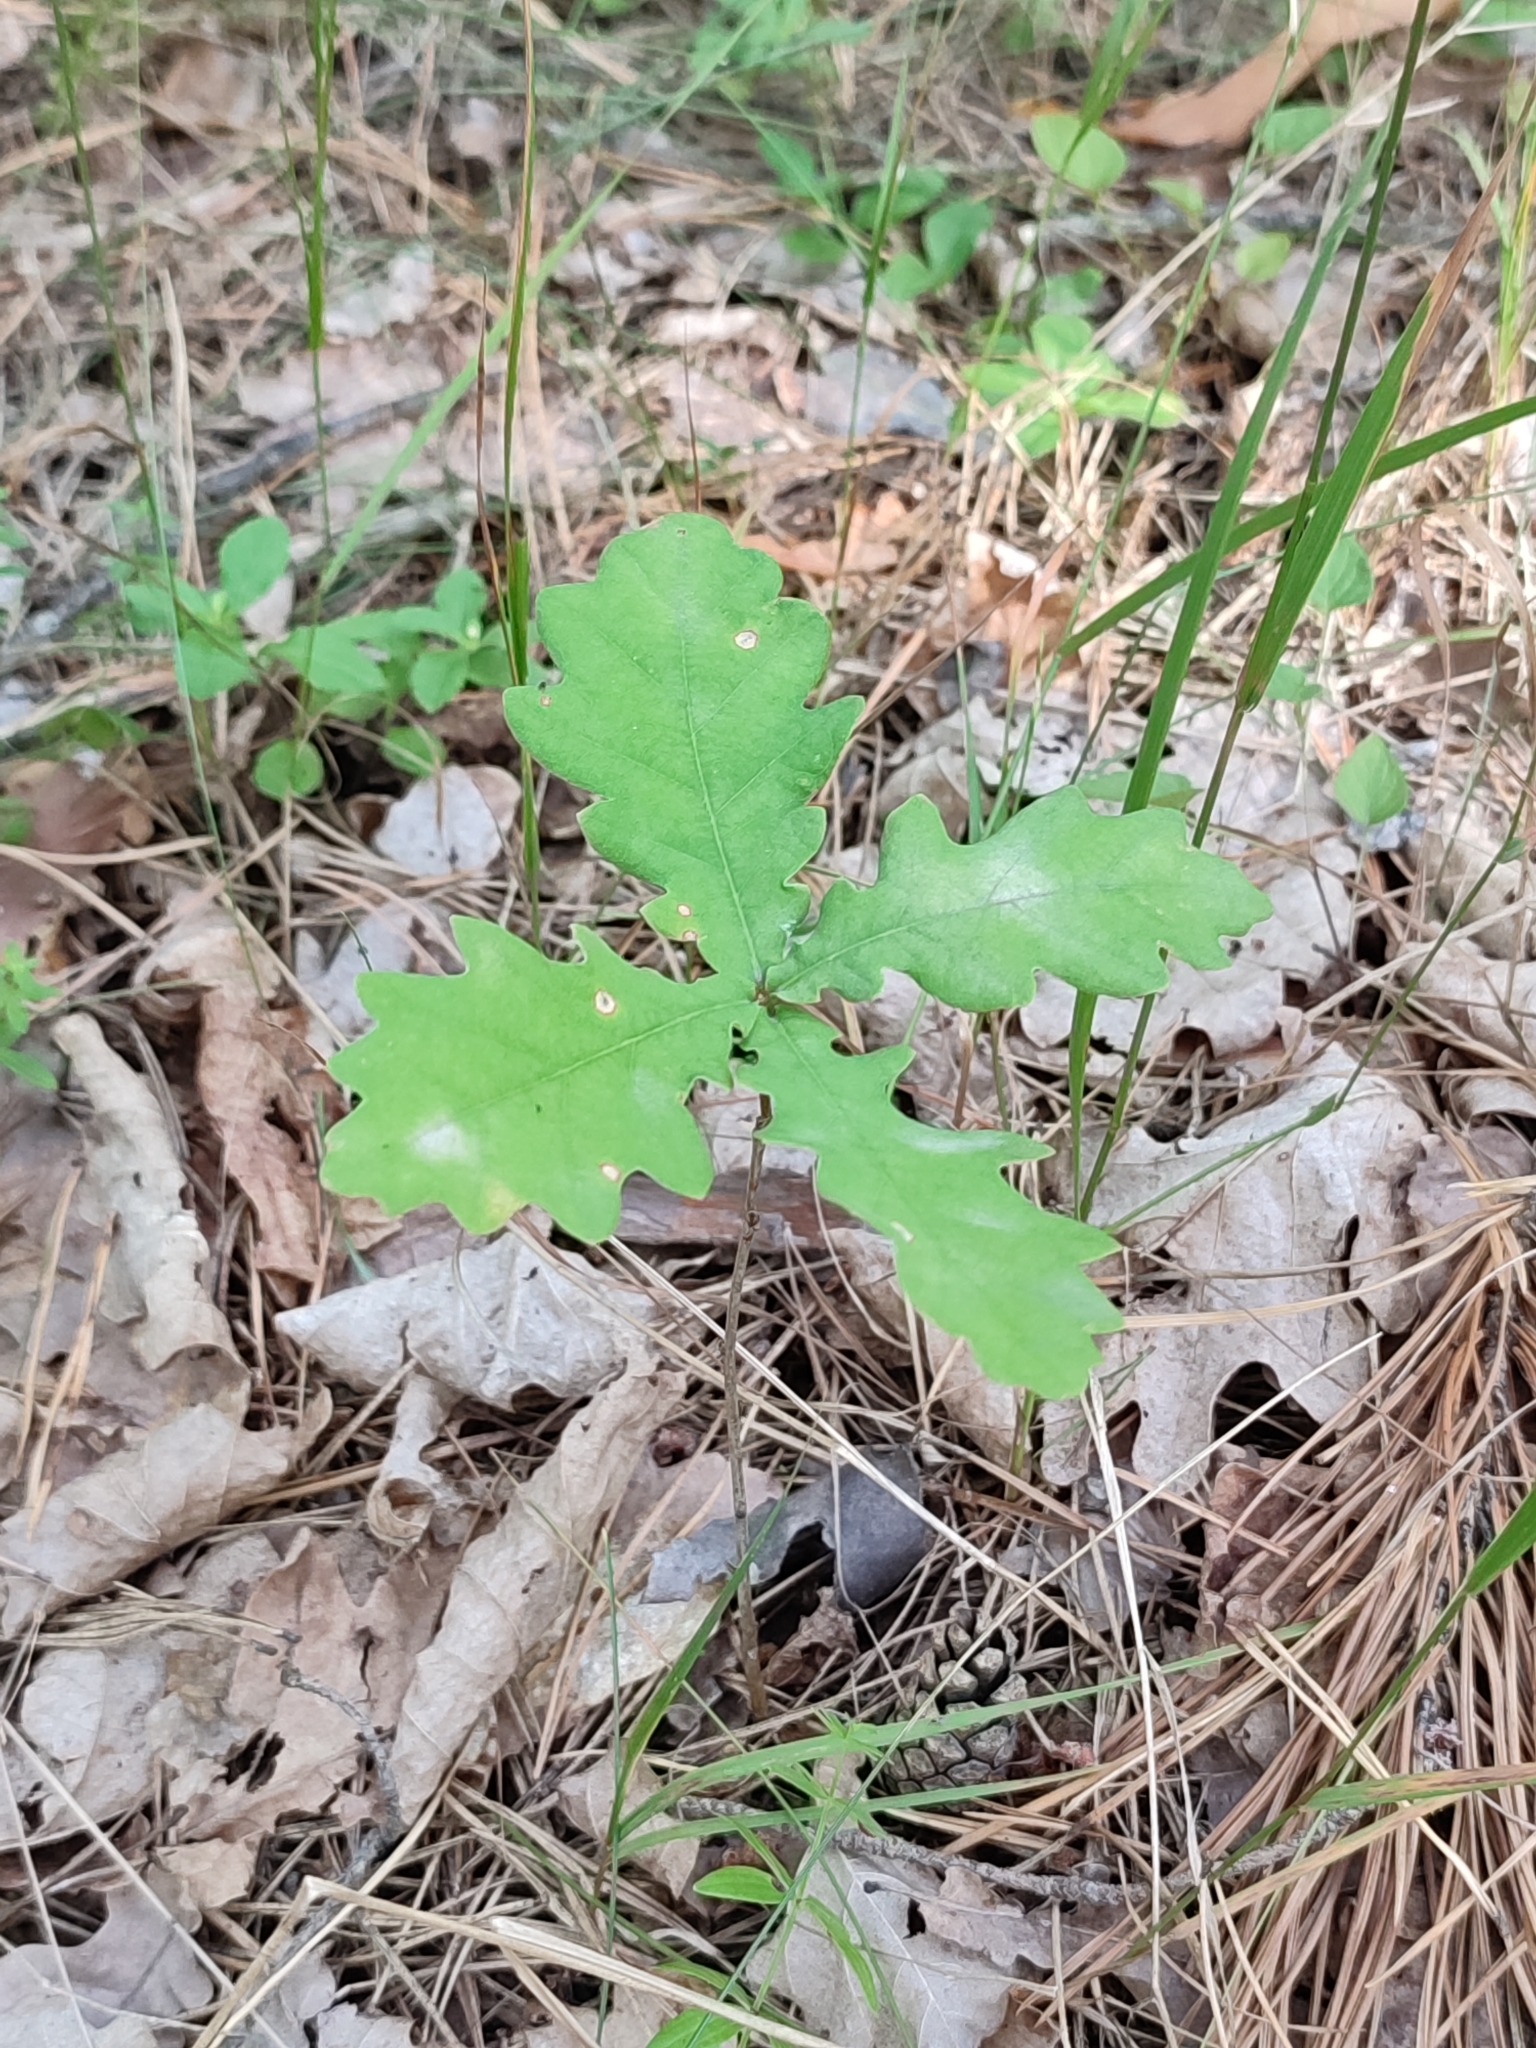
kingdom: Plantae
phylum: Tracheophyta
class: Magnoliopsida
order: Fagales
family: Fagaceae
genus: Quercus
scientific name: Quercus robur
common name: Pedunculate oak
